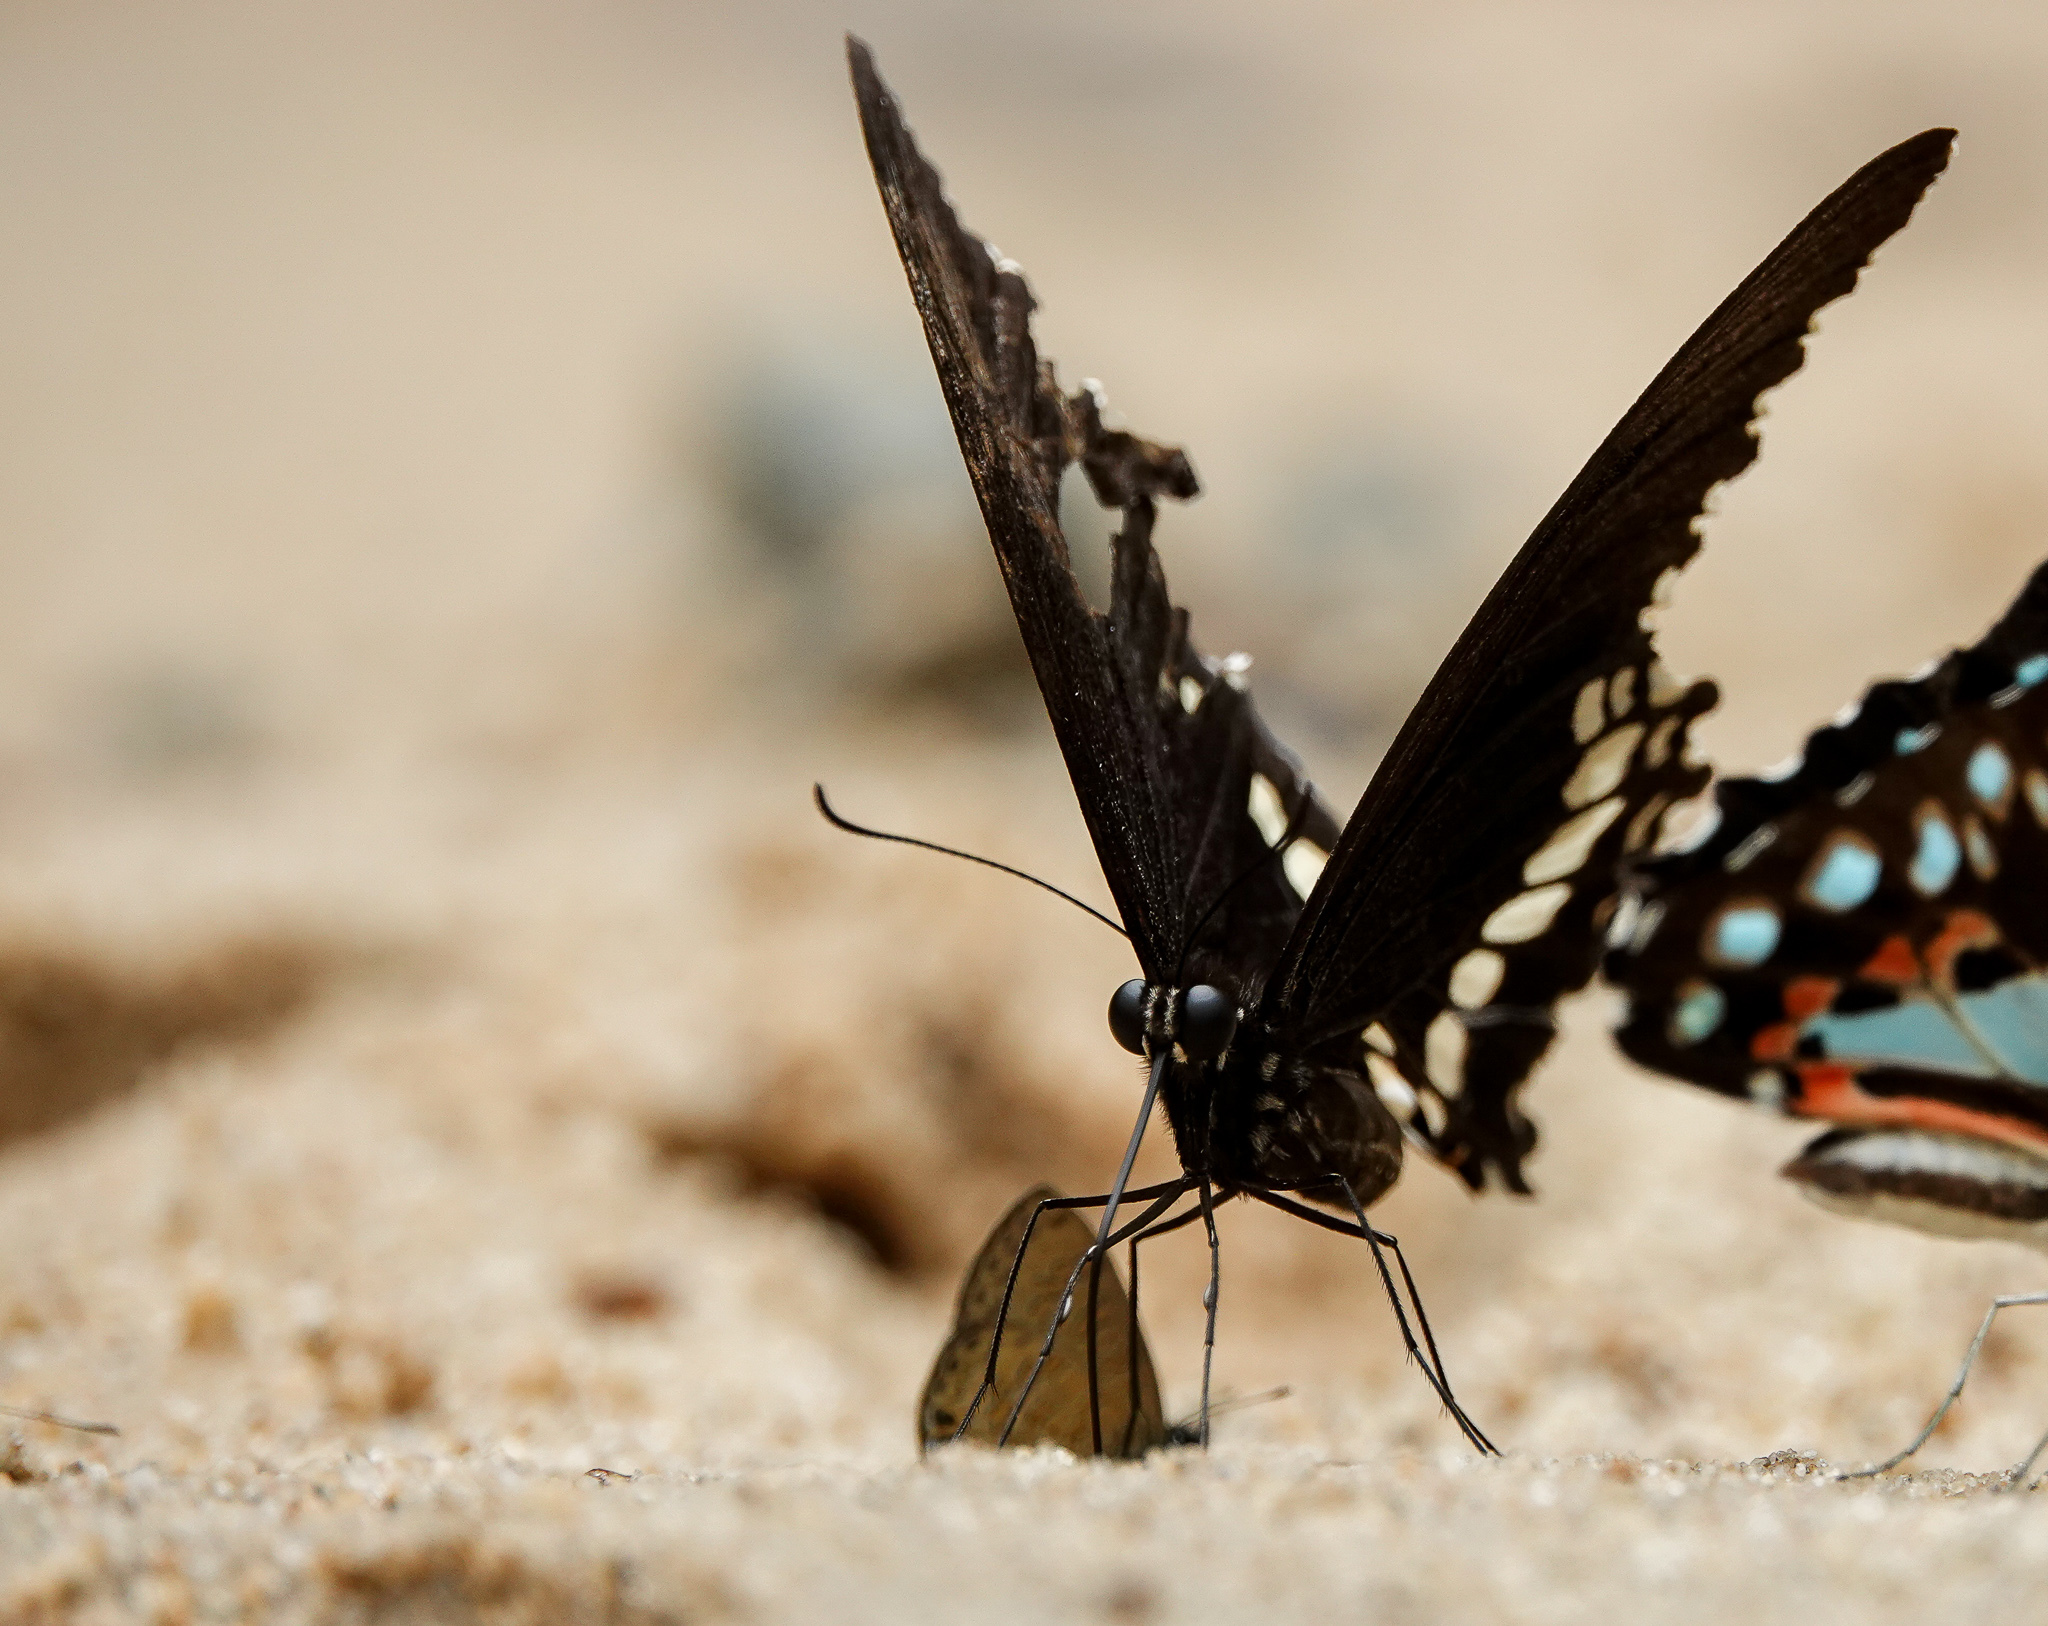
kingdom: Animalia
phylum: Arthropoda
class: Insecta
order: Lepidoptera
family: Papilionidae
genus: Papilio
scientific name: Papilio polytes
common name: Common mormon
